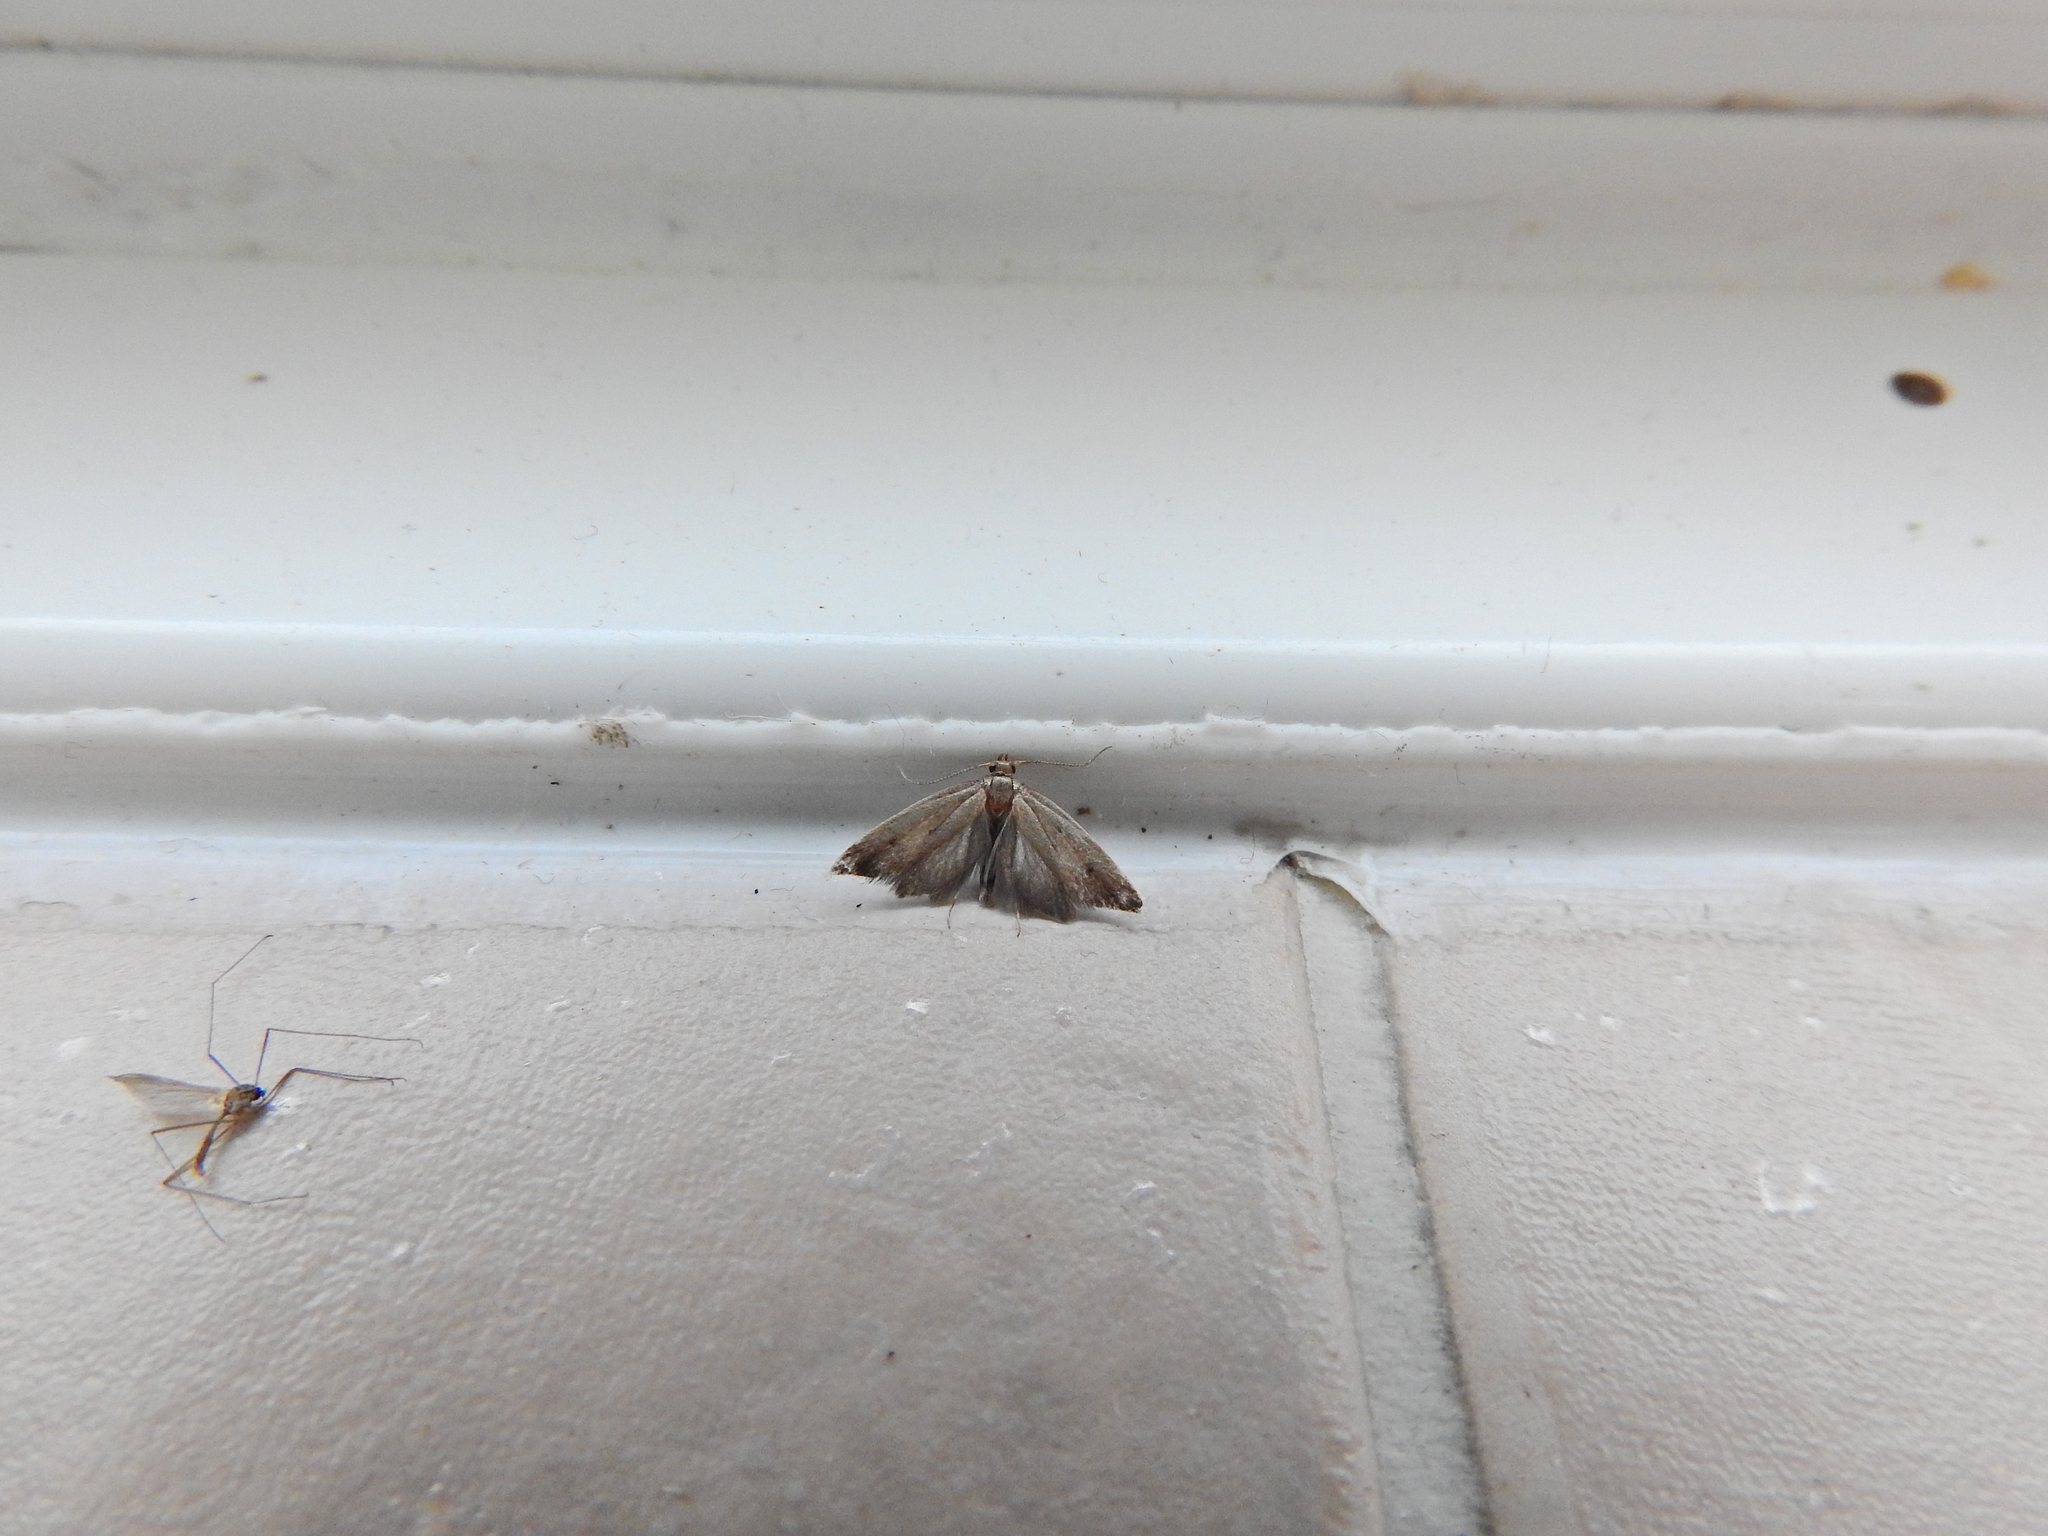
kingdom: Animalia
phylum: Arthropoda
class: Insecta
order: Lepidoptera
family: Oecophoridae
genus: Tachystola
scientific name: Tachystola acroxantha
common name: Ruddy streak
